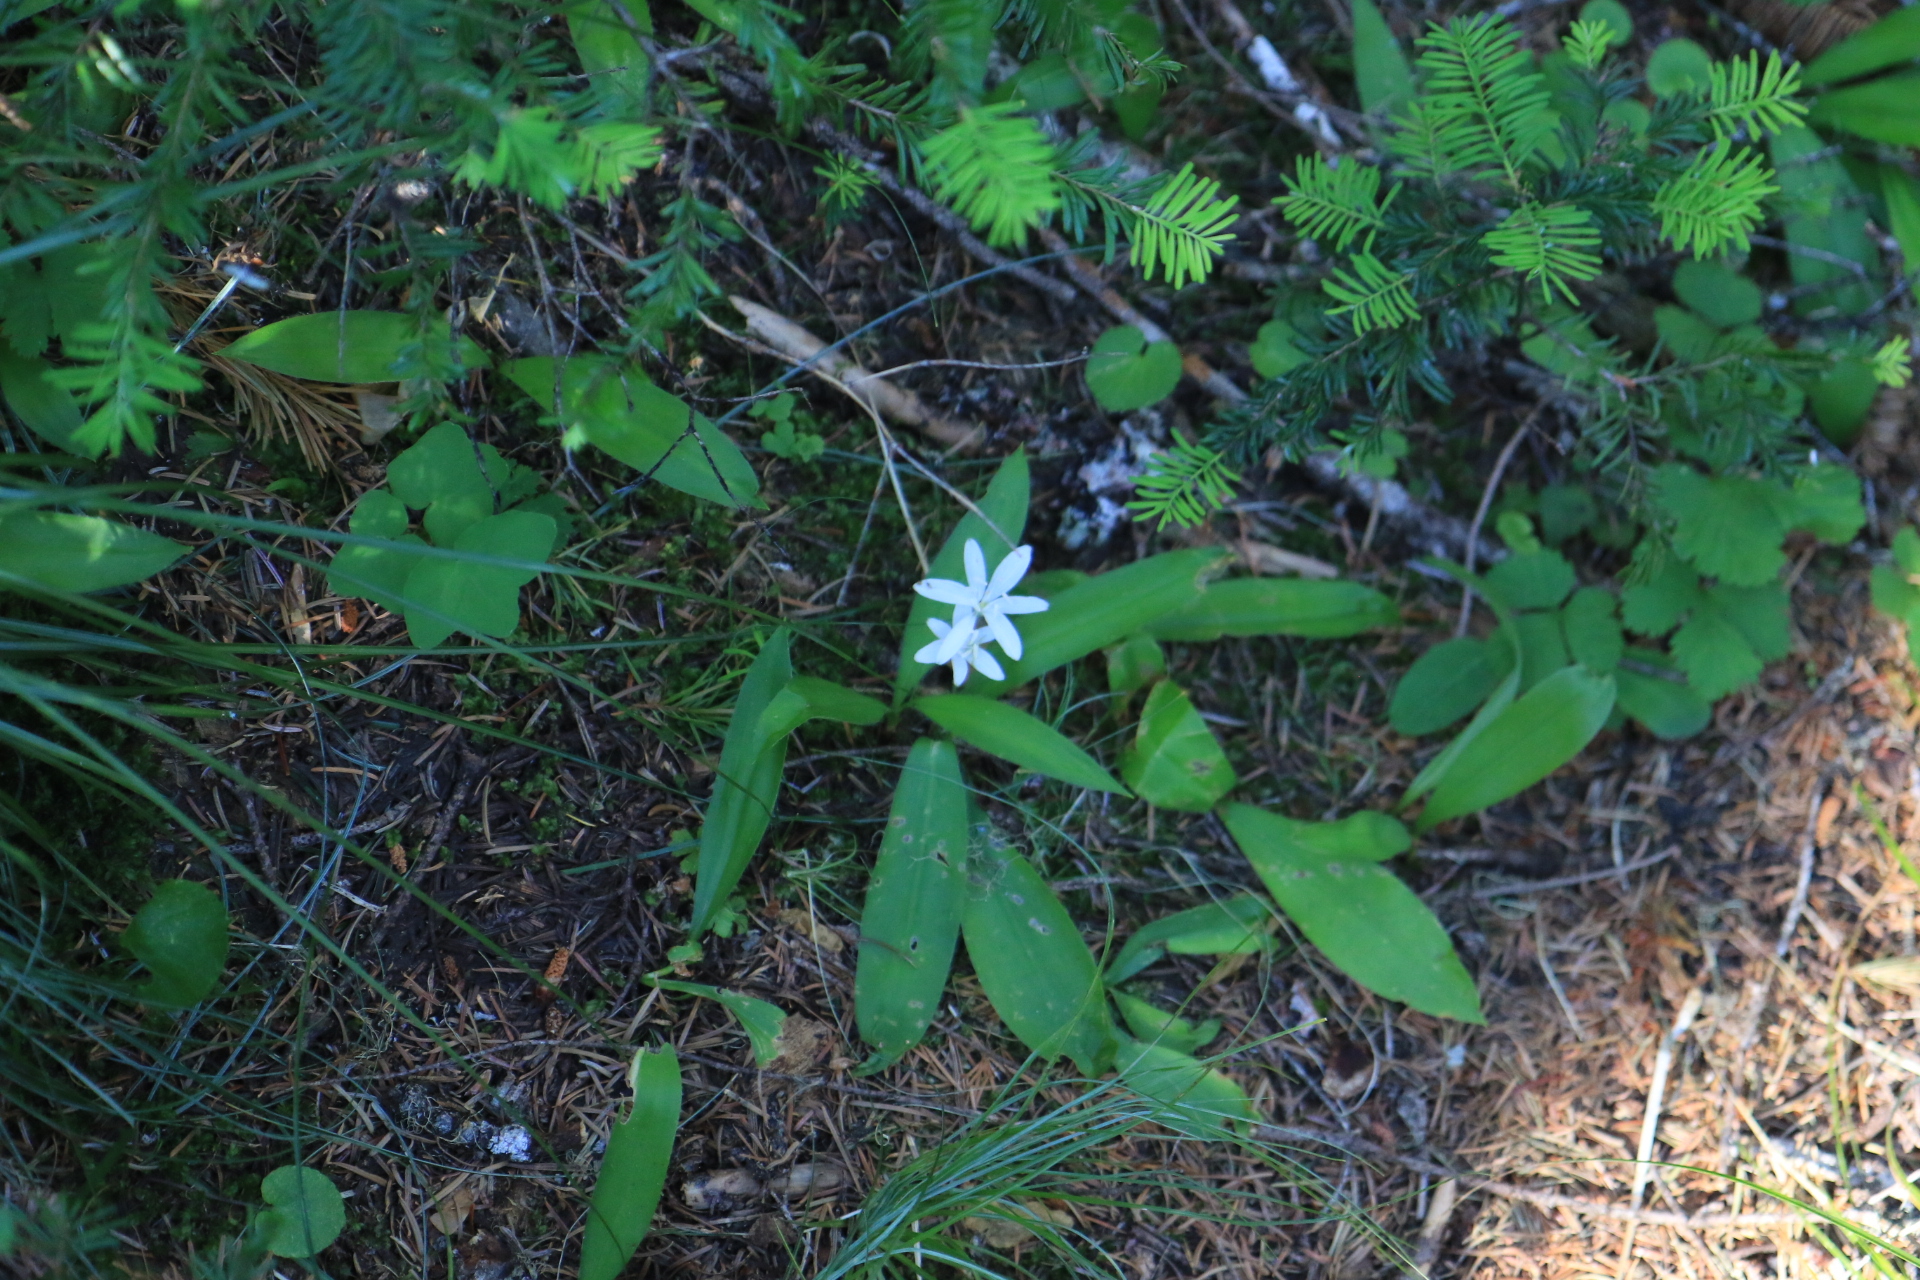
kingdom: Plantae
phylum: Tracheophyta
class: Liliopsida
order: Liliales
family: Liliaceae
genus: Clintonia
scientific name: Clintonia uniflora
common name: Queen's cup
